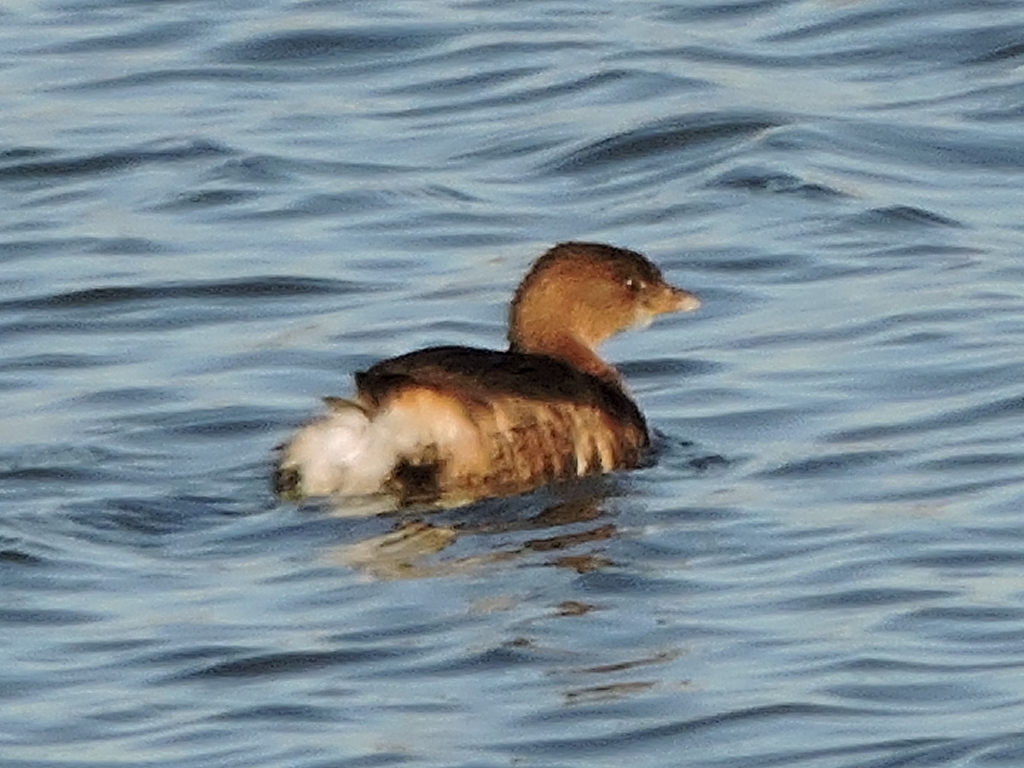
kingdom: Animalia
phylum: Chordata
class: Aves
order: Podicipediformes
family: Podicipedidae
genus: Podilymbus
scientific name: Podilymbus podiceps
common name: Pied-billed grebe
